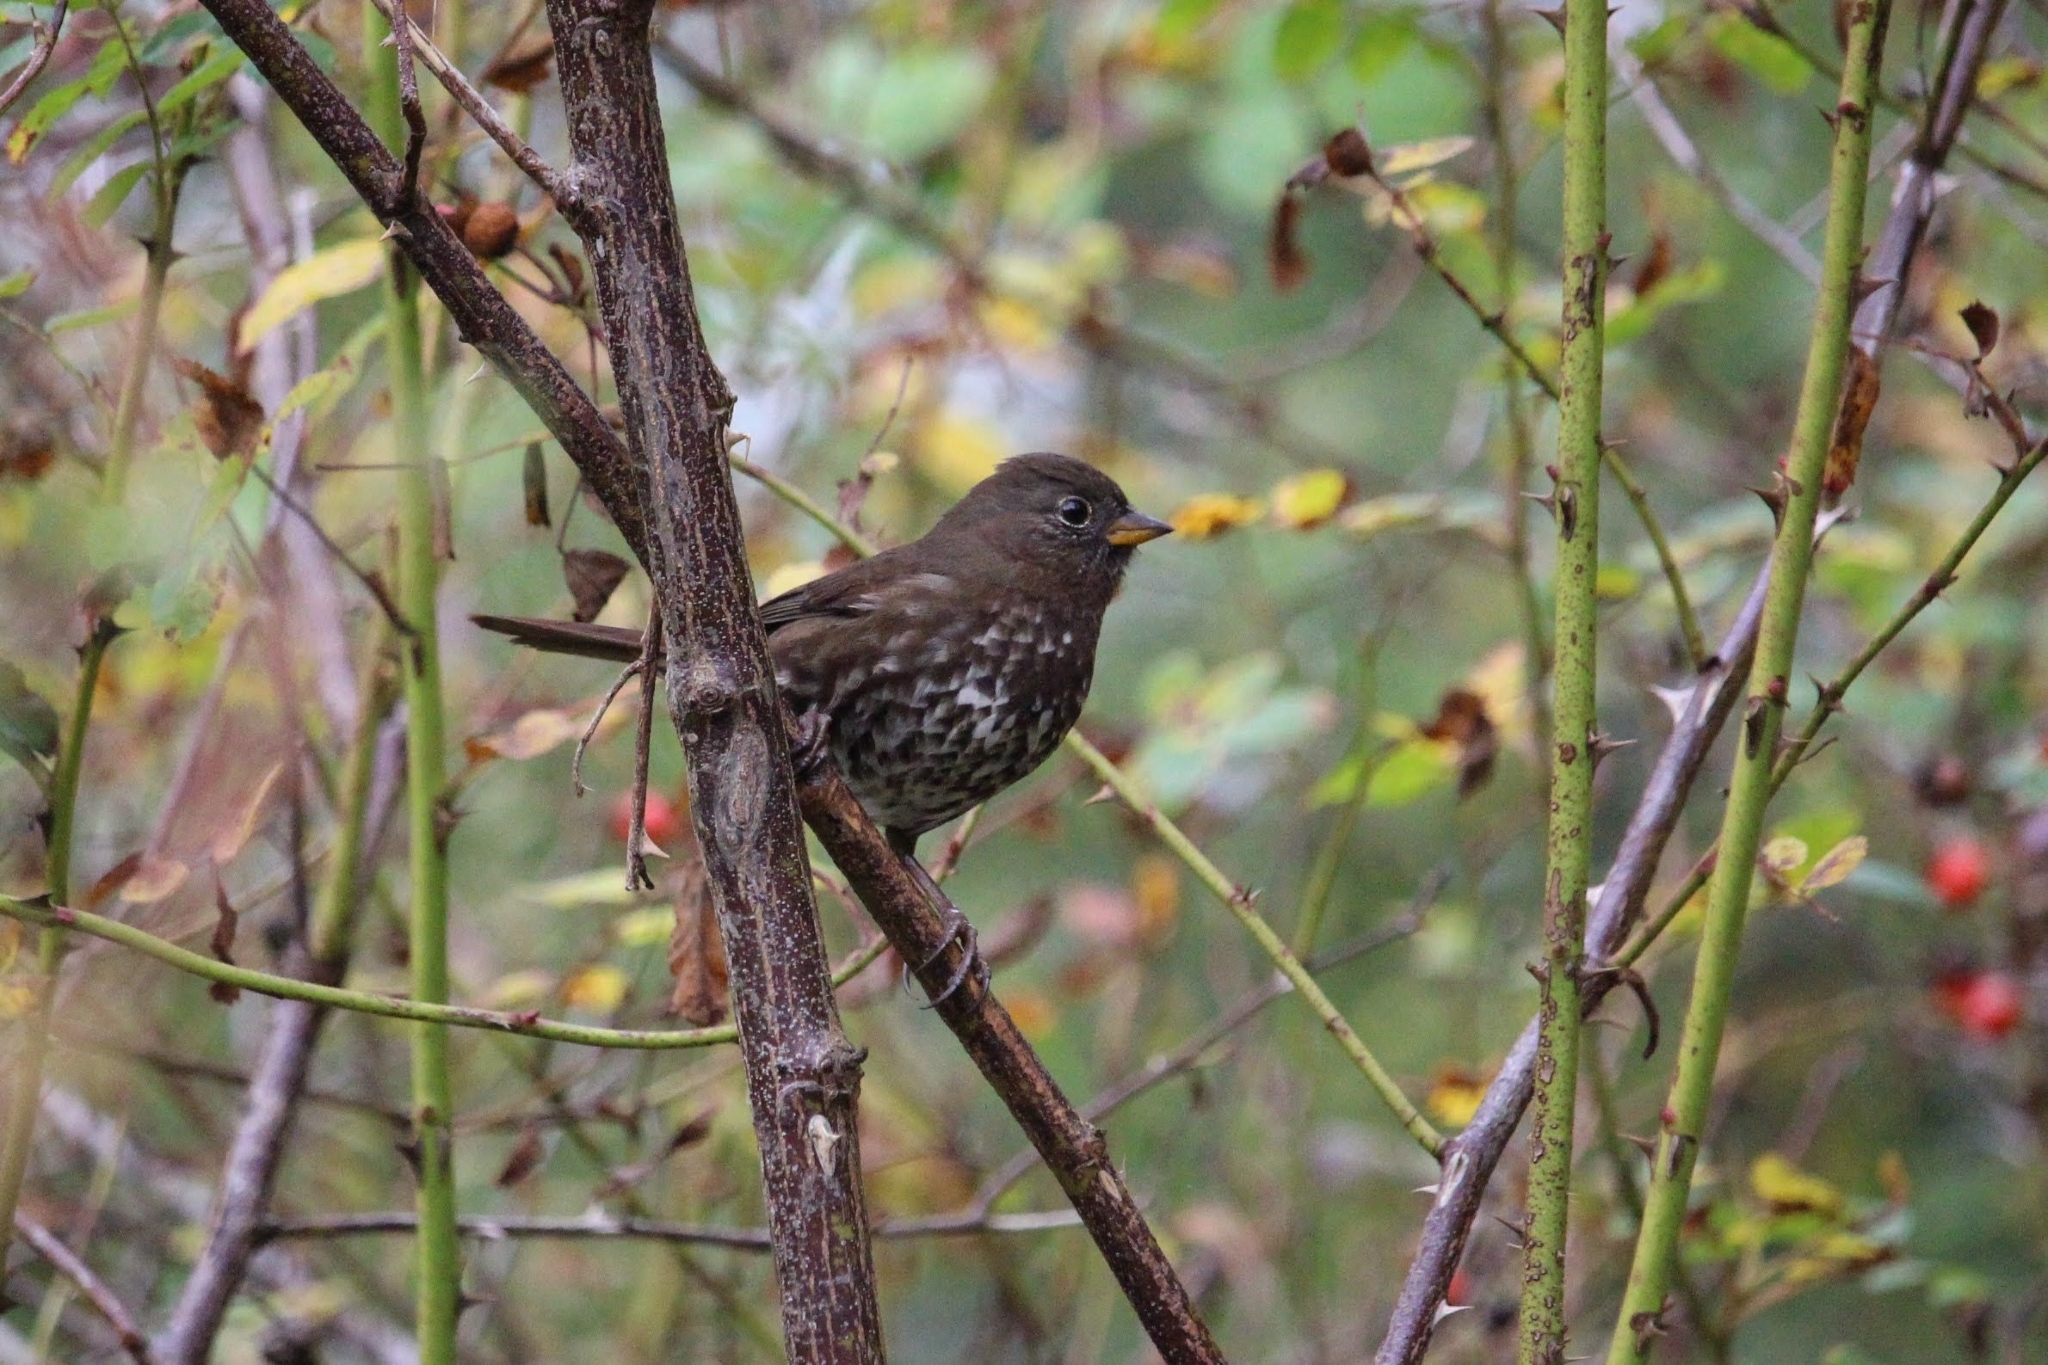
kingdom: Animalia
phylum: Chordata
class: Aves
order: Passeriformes
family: Passerellidae
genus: Passerella
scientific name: Passerella iliaca
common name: Fox sparrow
